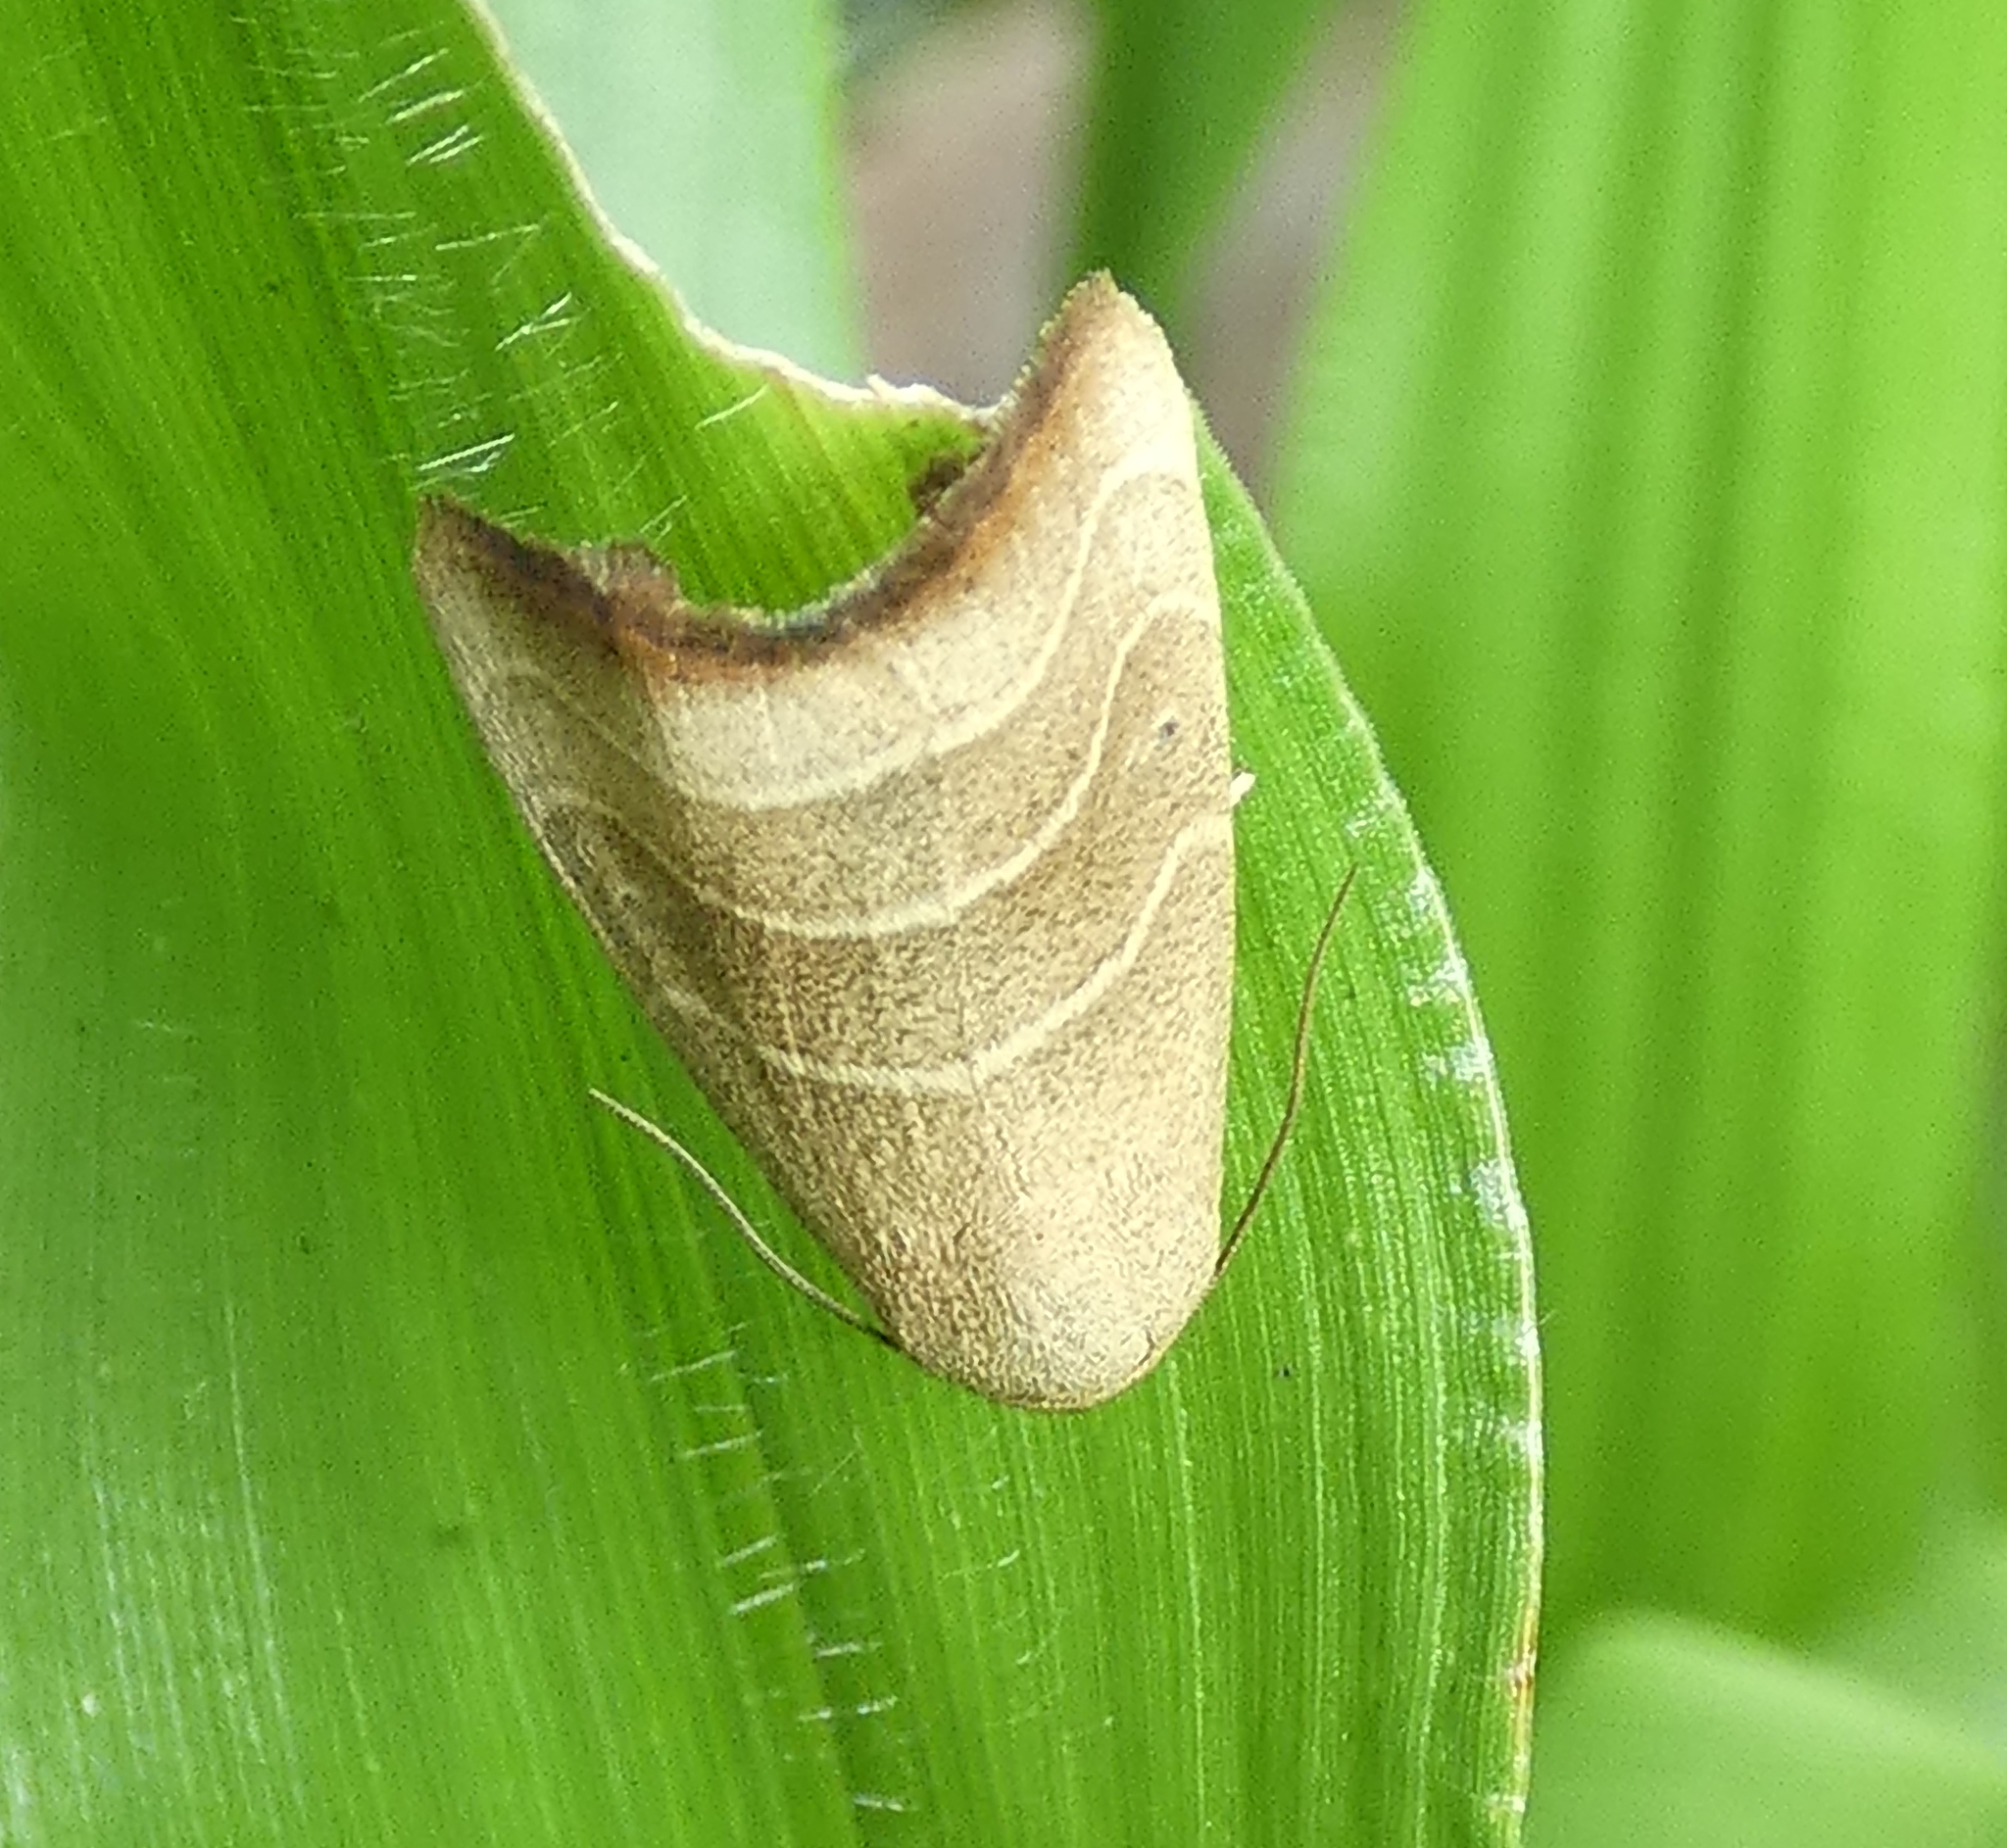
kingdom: Animalia
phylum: Arthropoda
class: Insecta
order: Lepidoptera
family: Noctuidae
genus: Bagisara
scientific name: Bagisara repanda
